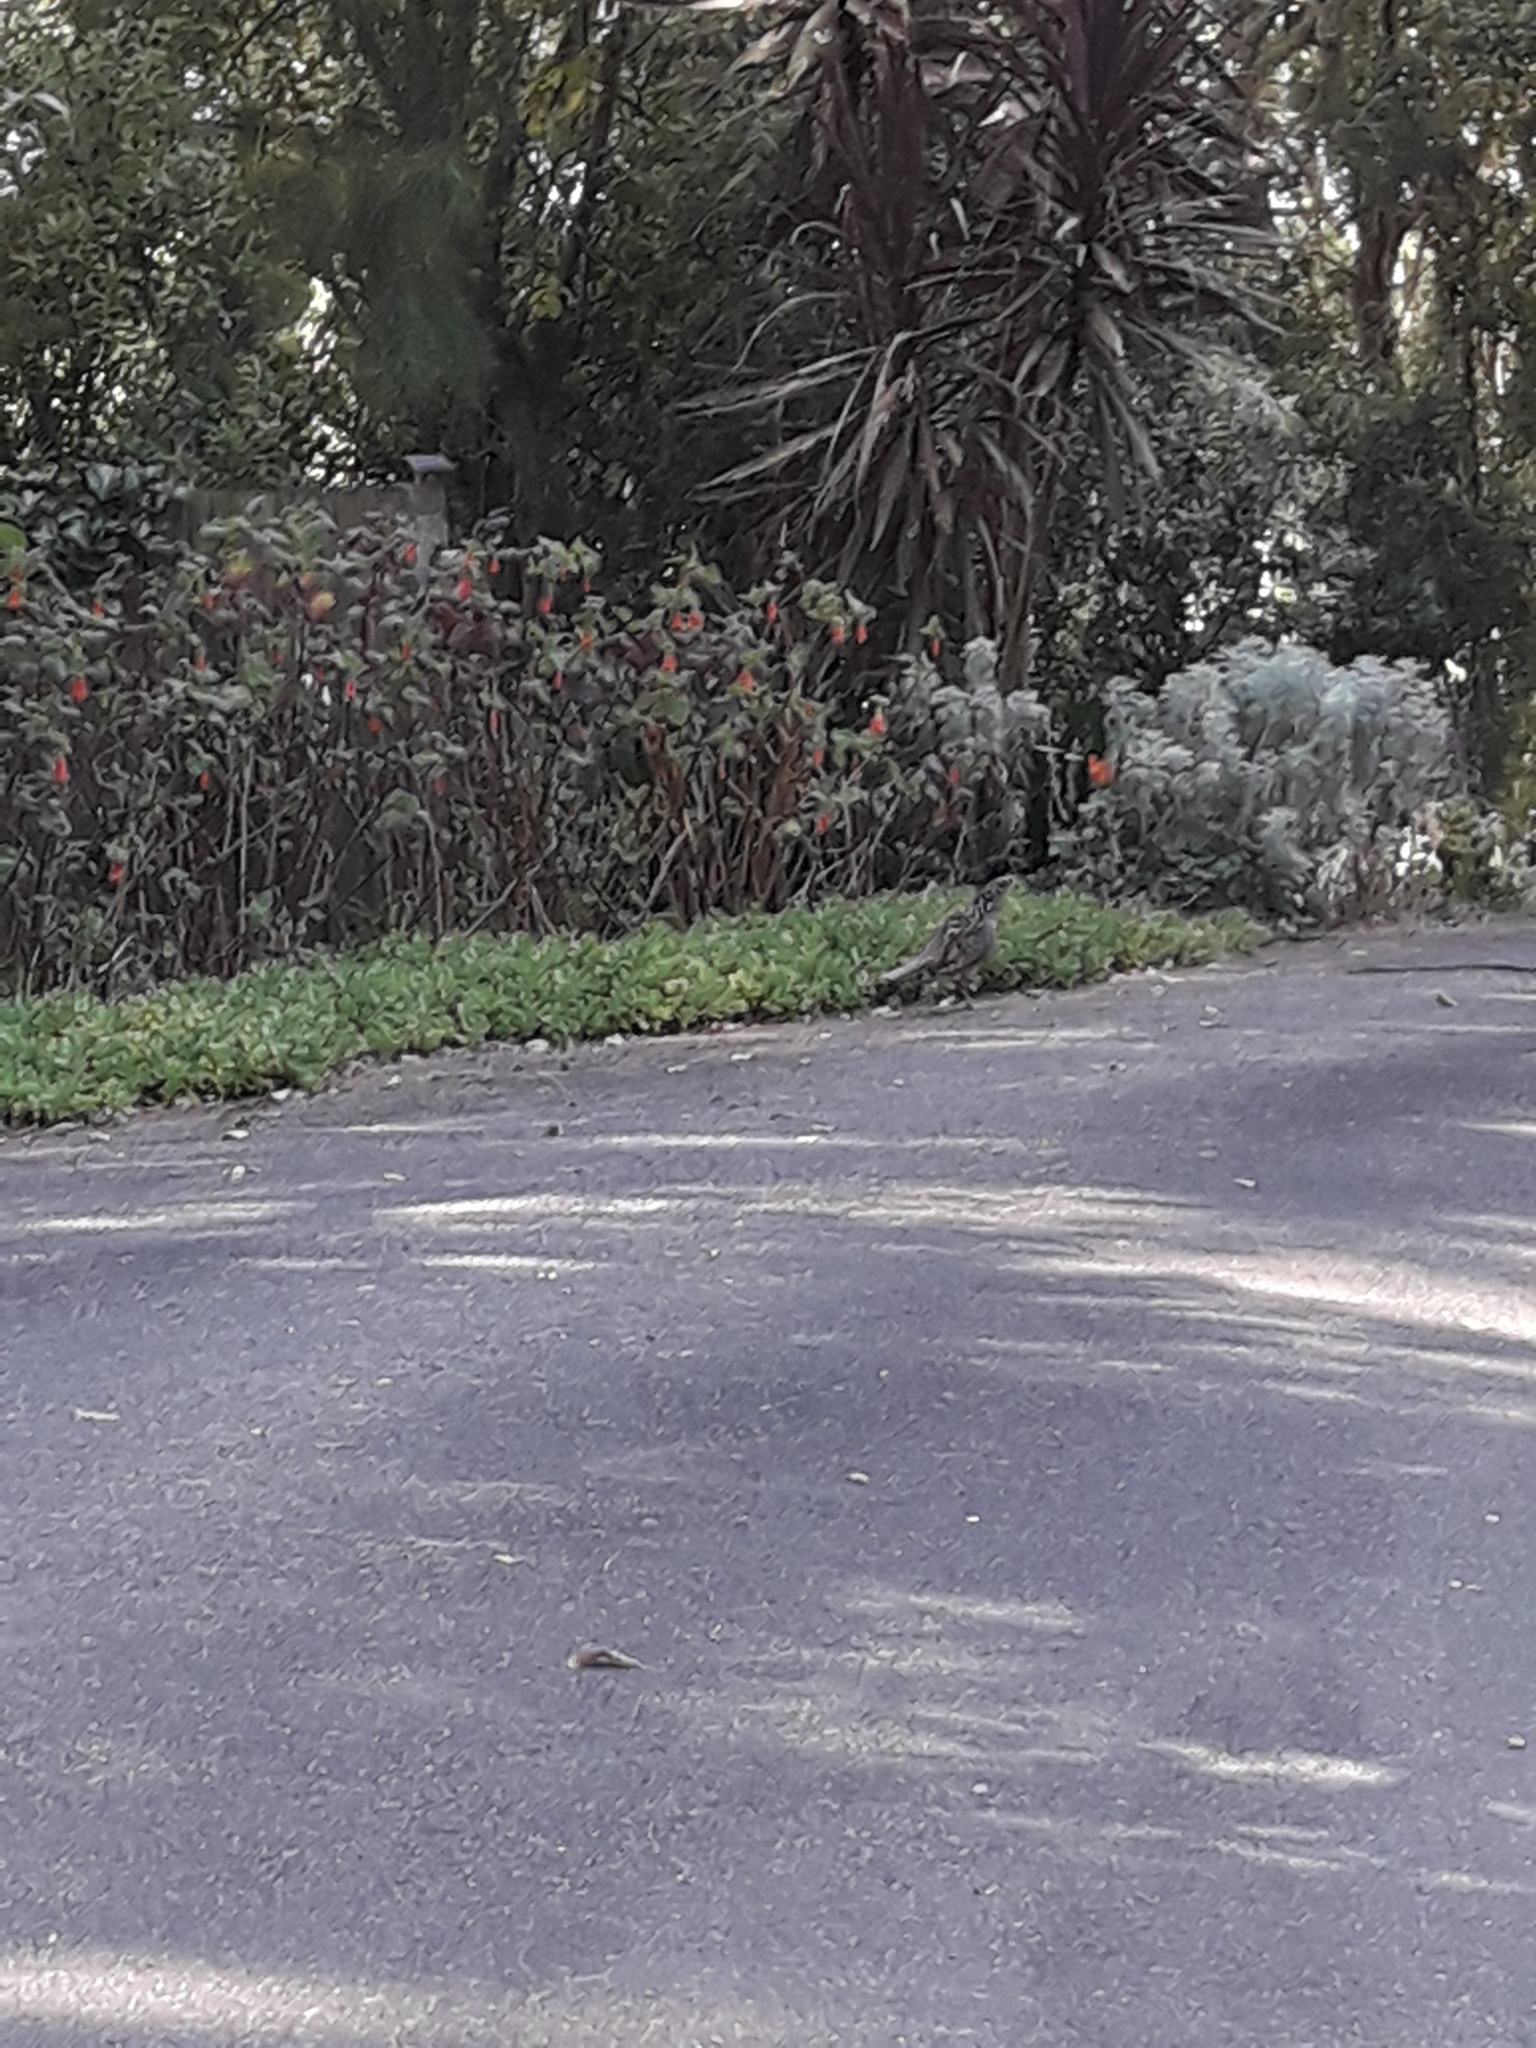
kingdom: Animalia
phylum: Chordata
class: Aves
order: Galliformes
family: Phasianidae
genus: Chrysolophus
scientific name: Chrysolophus pictus
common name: Golden pheasant
